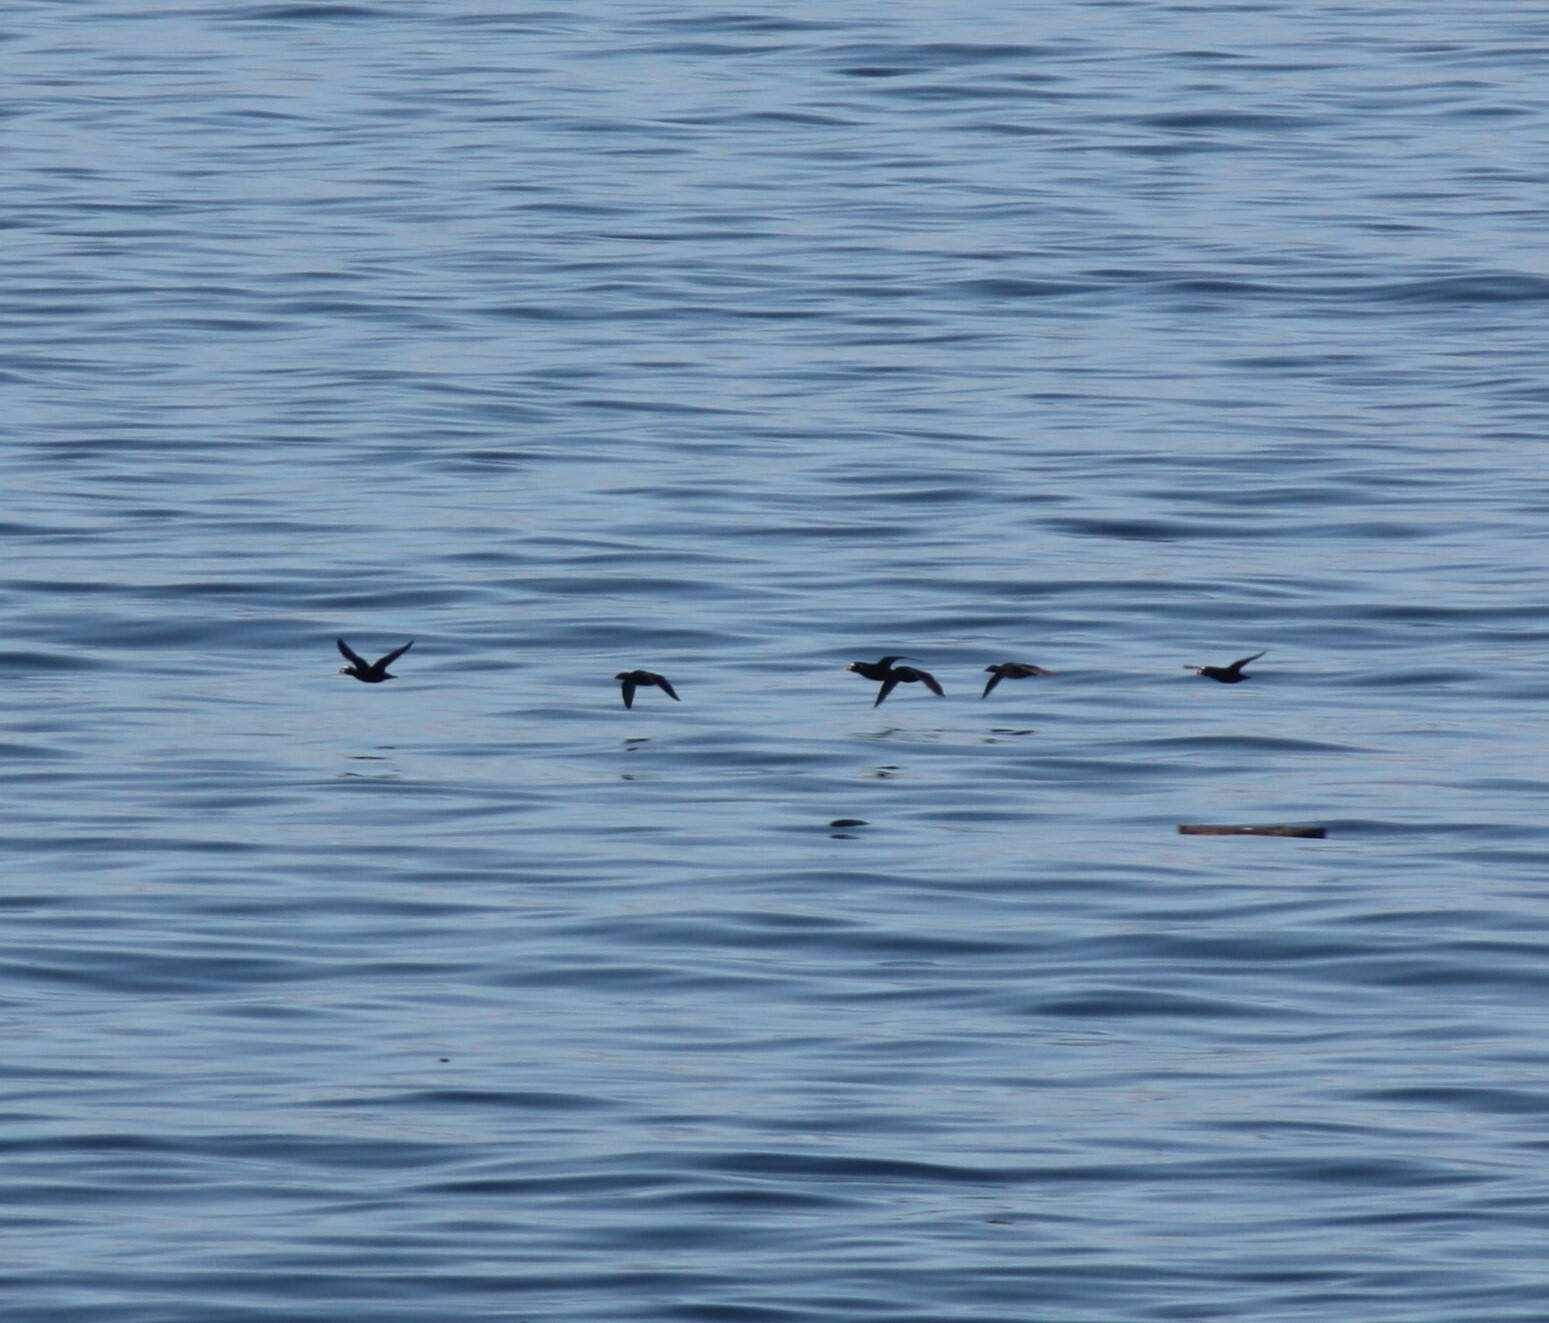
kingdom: Animalia
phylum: Chordata
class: Aves
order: Anseriformes
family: Anatidae
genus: Melanitta
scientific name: Melanitta perspicillata
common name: Surf scoter
